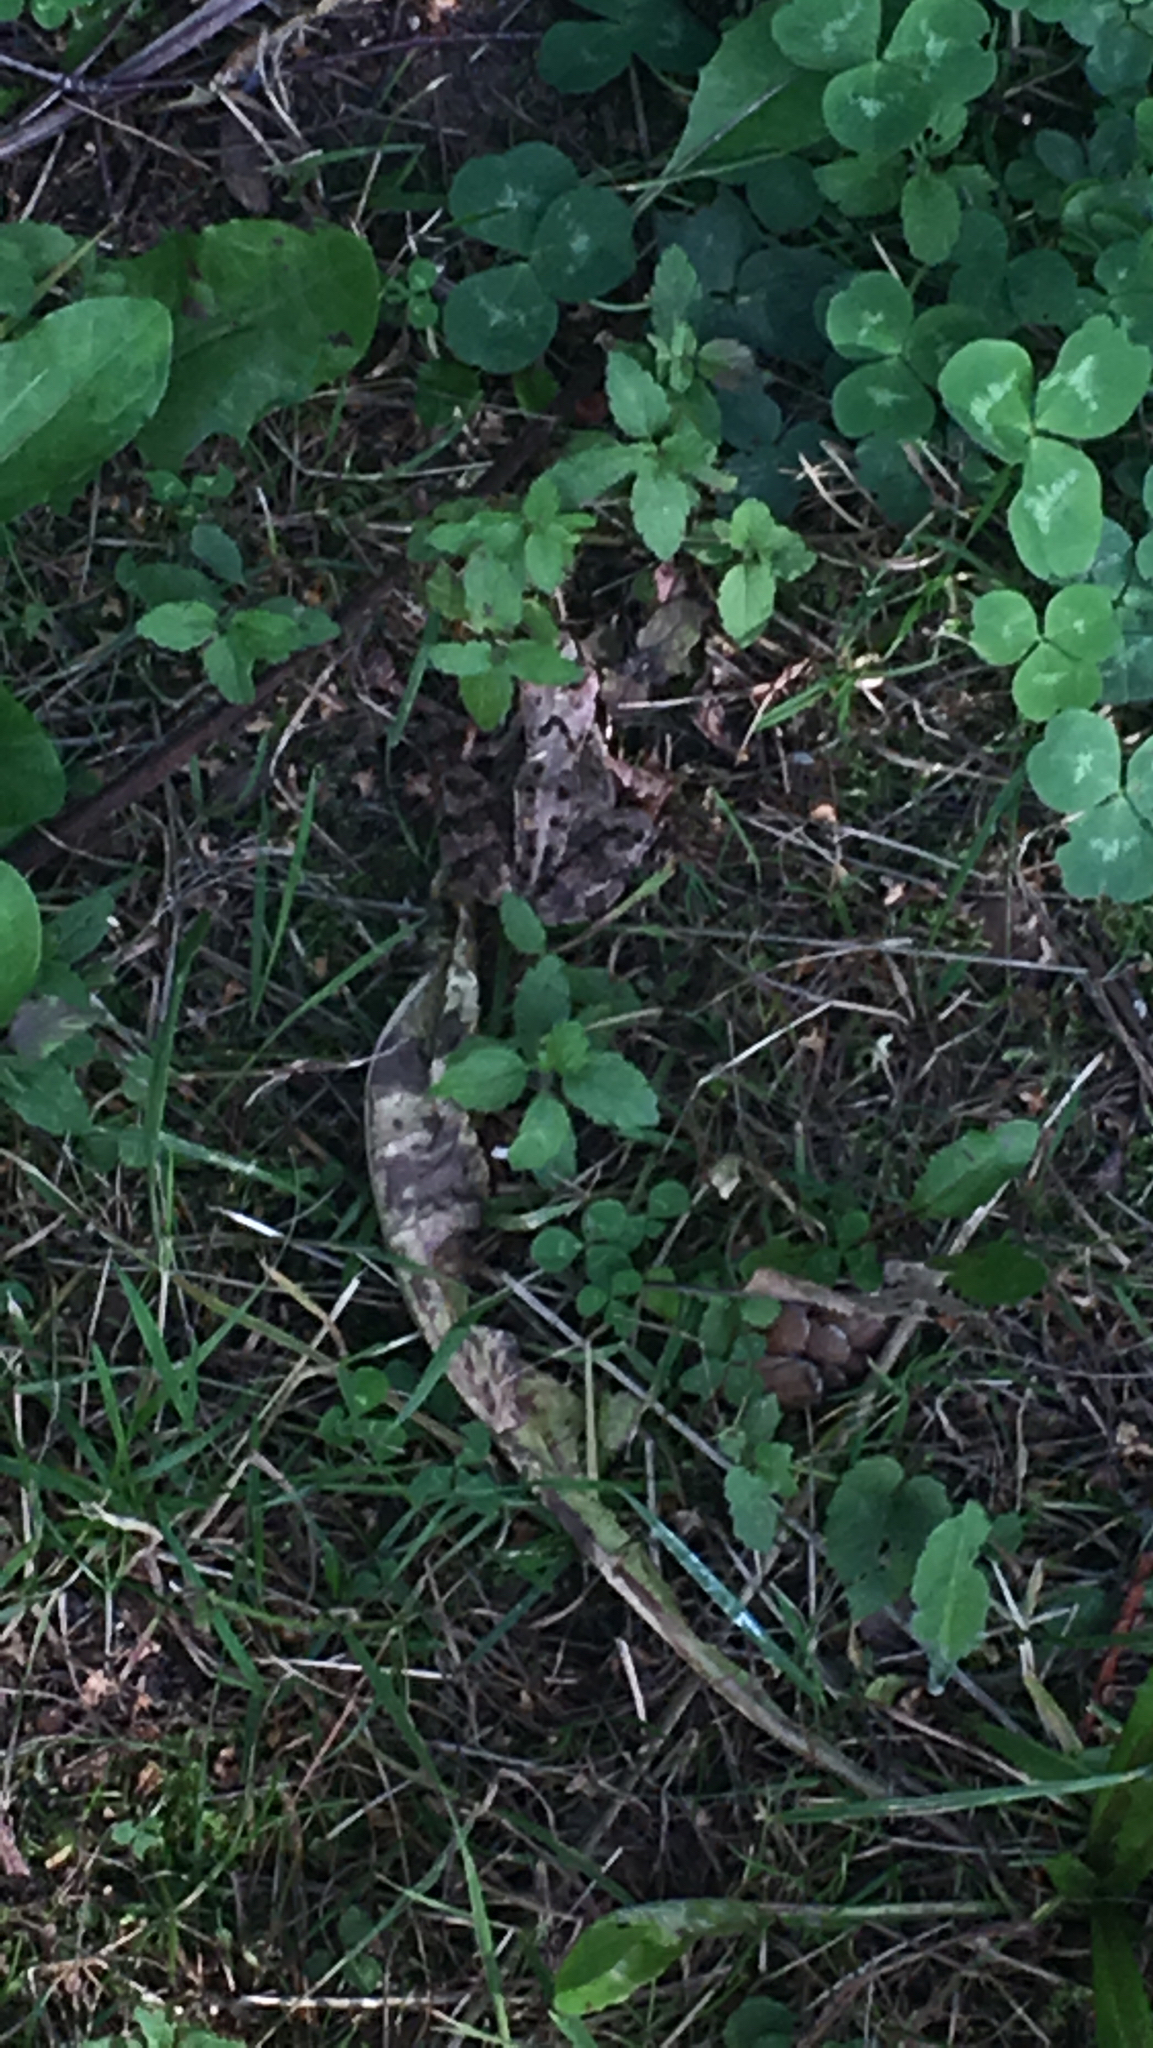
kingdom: Animalia
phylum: Chordata
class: Amphibia
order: Anura
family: Ranidae
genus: Rana
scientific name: Rana temporaria
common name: Common frog
